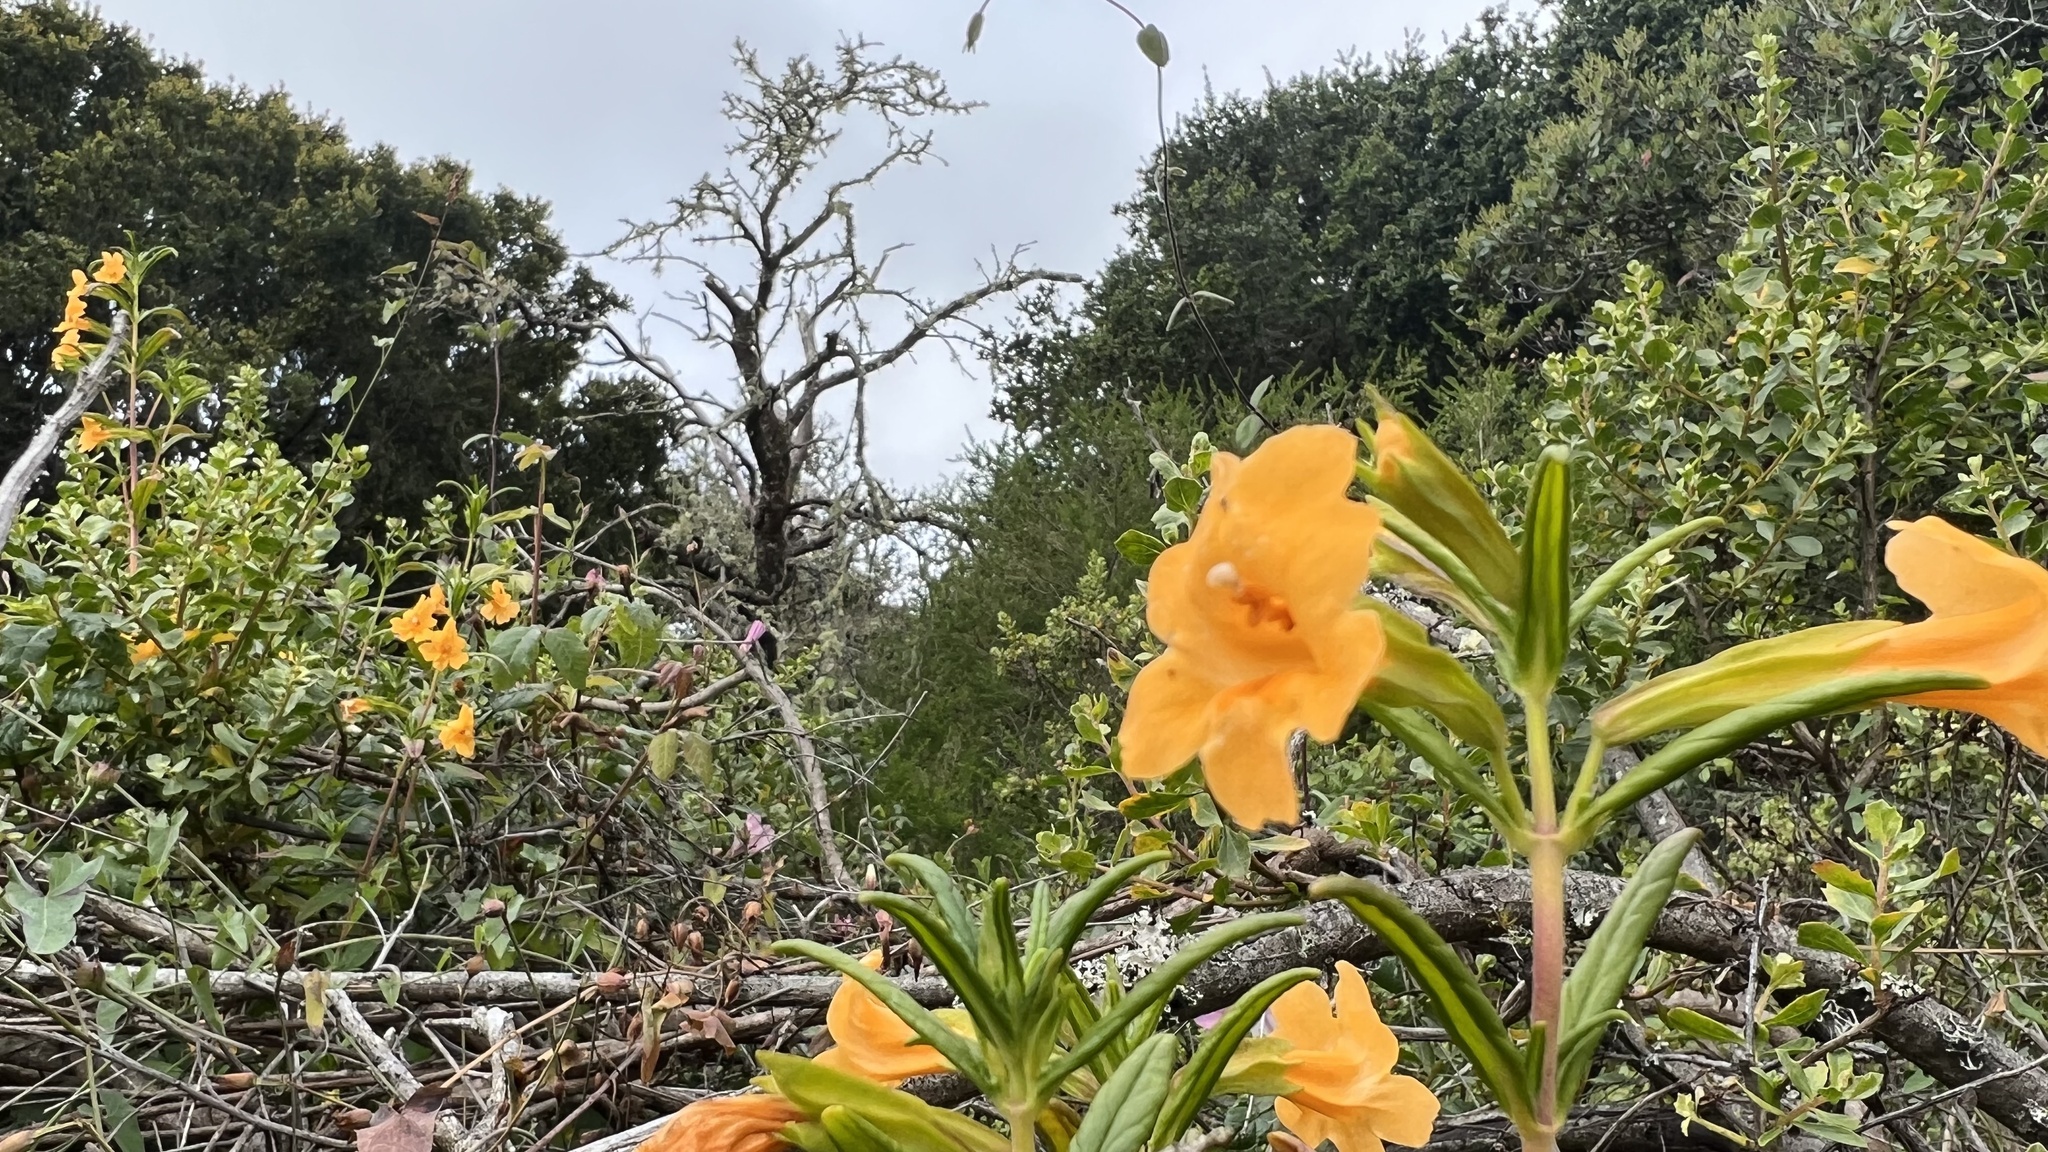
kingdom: Plantae
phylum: Tracheophyta
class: Magnoliopsida
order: Lamiales
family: Phrymaceae
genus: Diplacus
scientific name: Diplacus aurantiacus
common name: Bush monkey-flower
